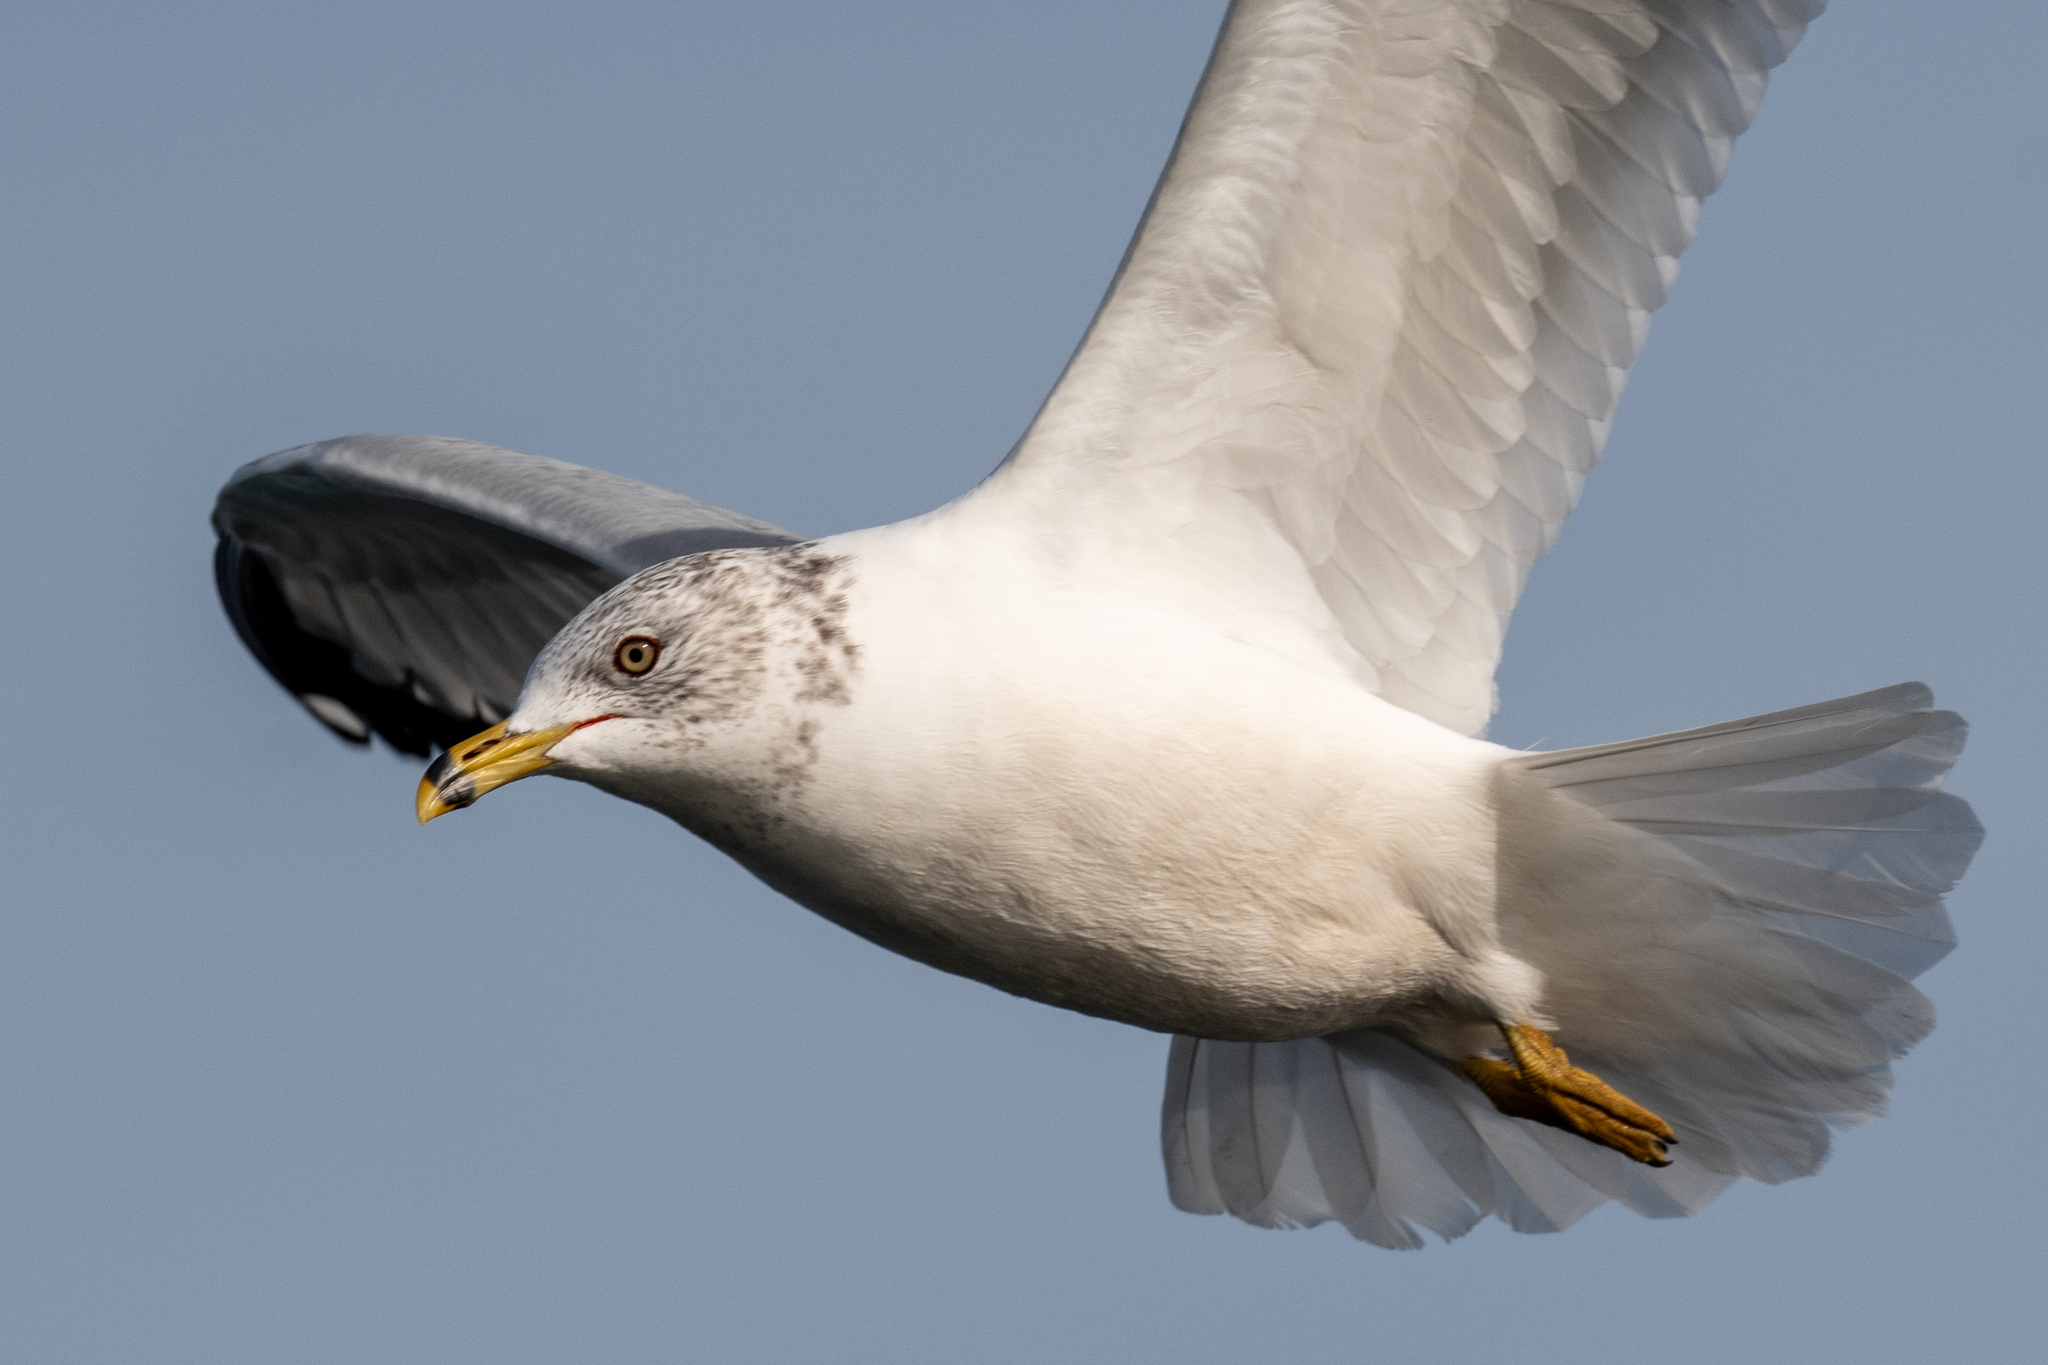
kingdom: Animalia
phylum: Chordata
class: Aves
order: Charadriiformes
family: Laridae
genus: Larus
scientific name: Larus delawarensis
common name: Ring-billed gull
